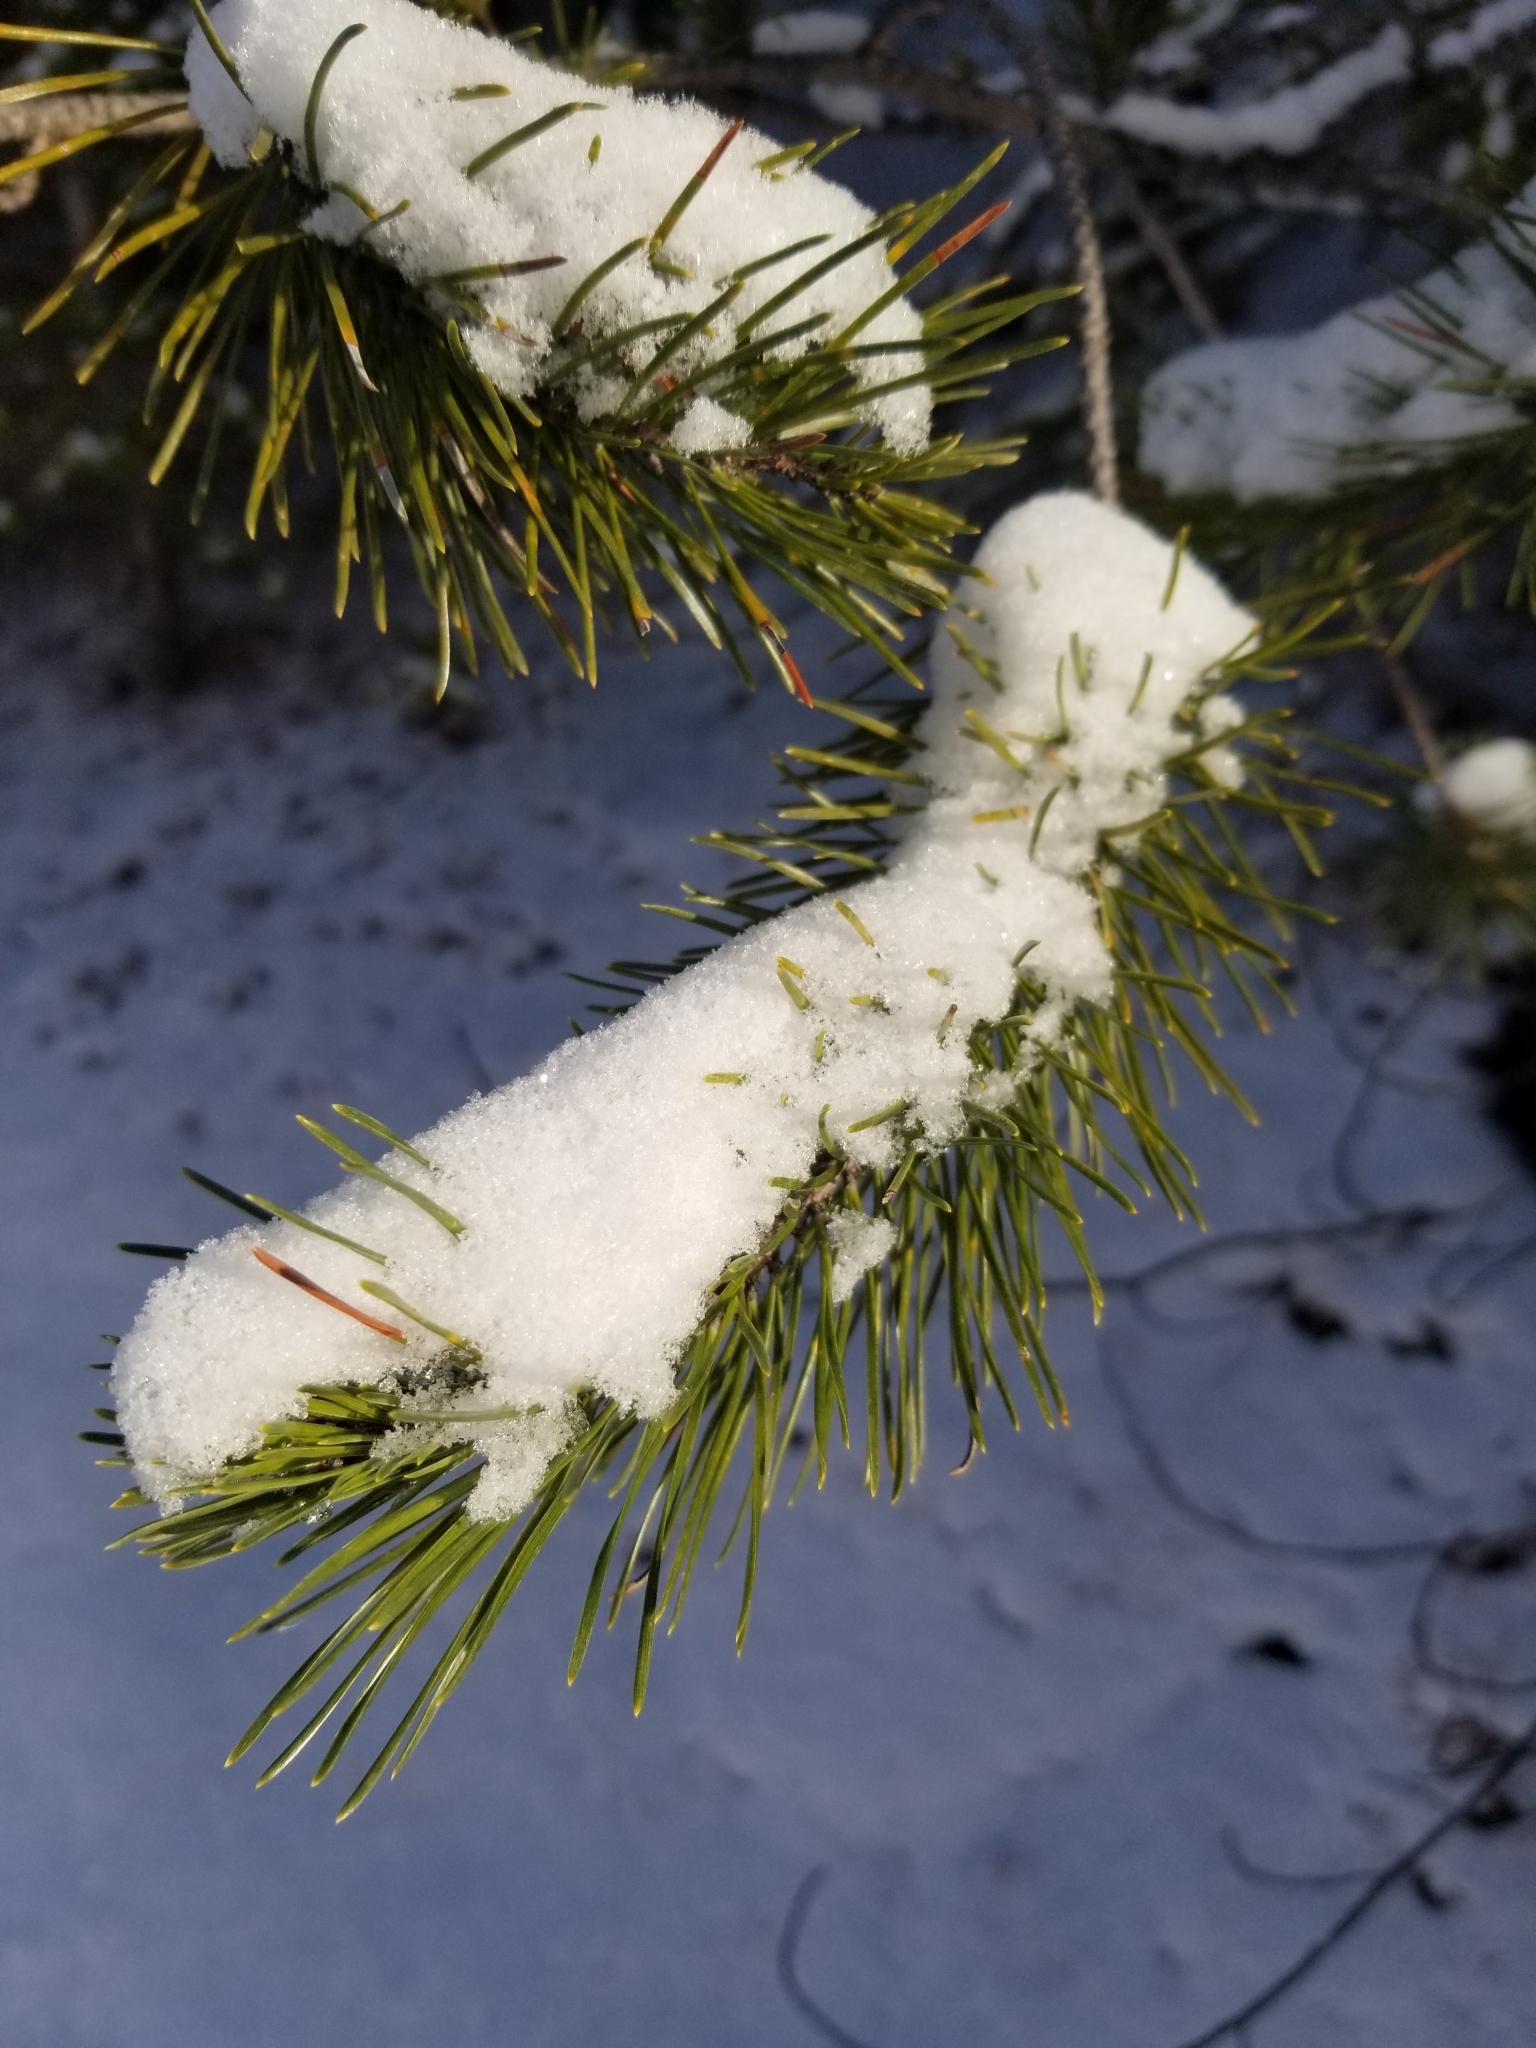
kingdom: Plantae
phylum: Tracheophyta
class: Pinopsida
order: Pinales
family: Pinaceae
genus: Pinus
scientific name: Pinus contorta
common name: Lodgepole pine
